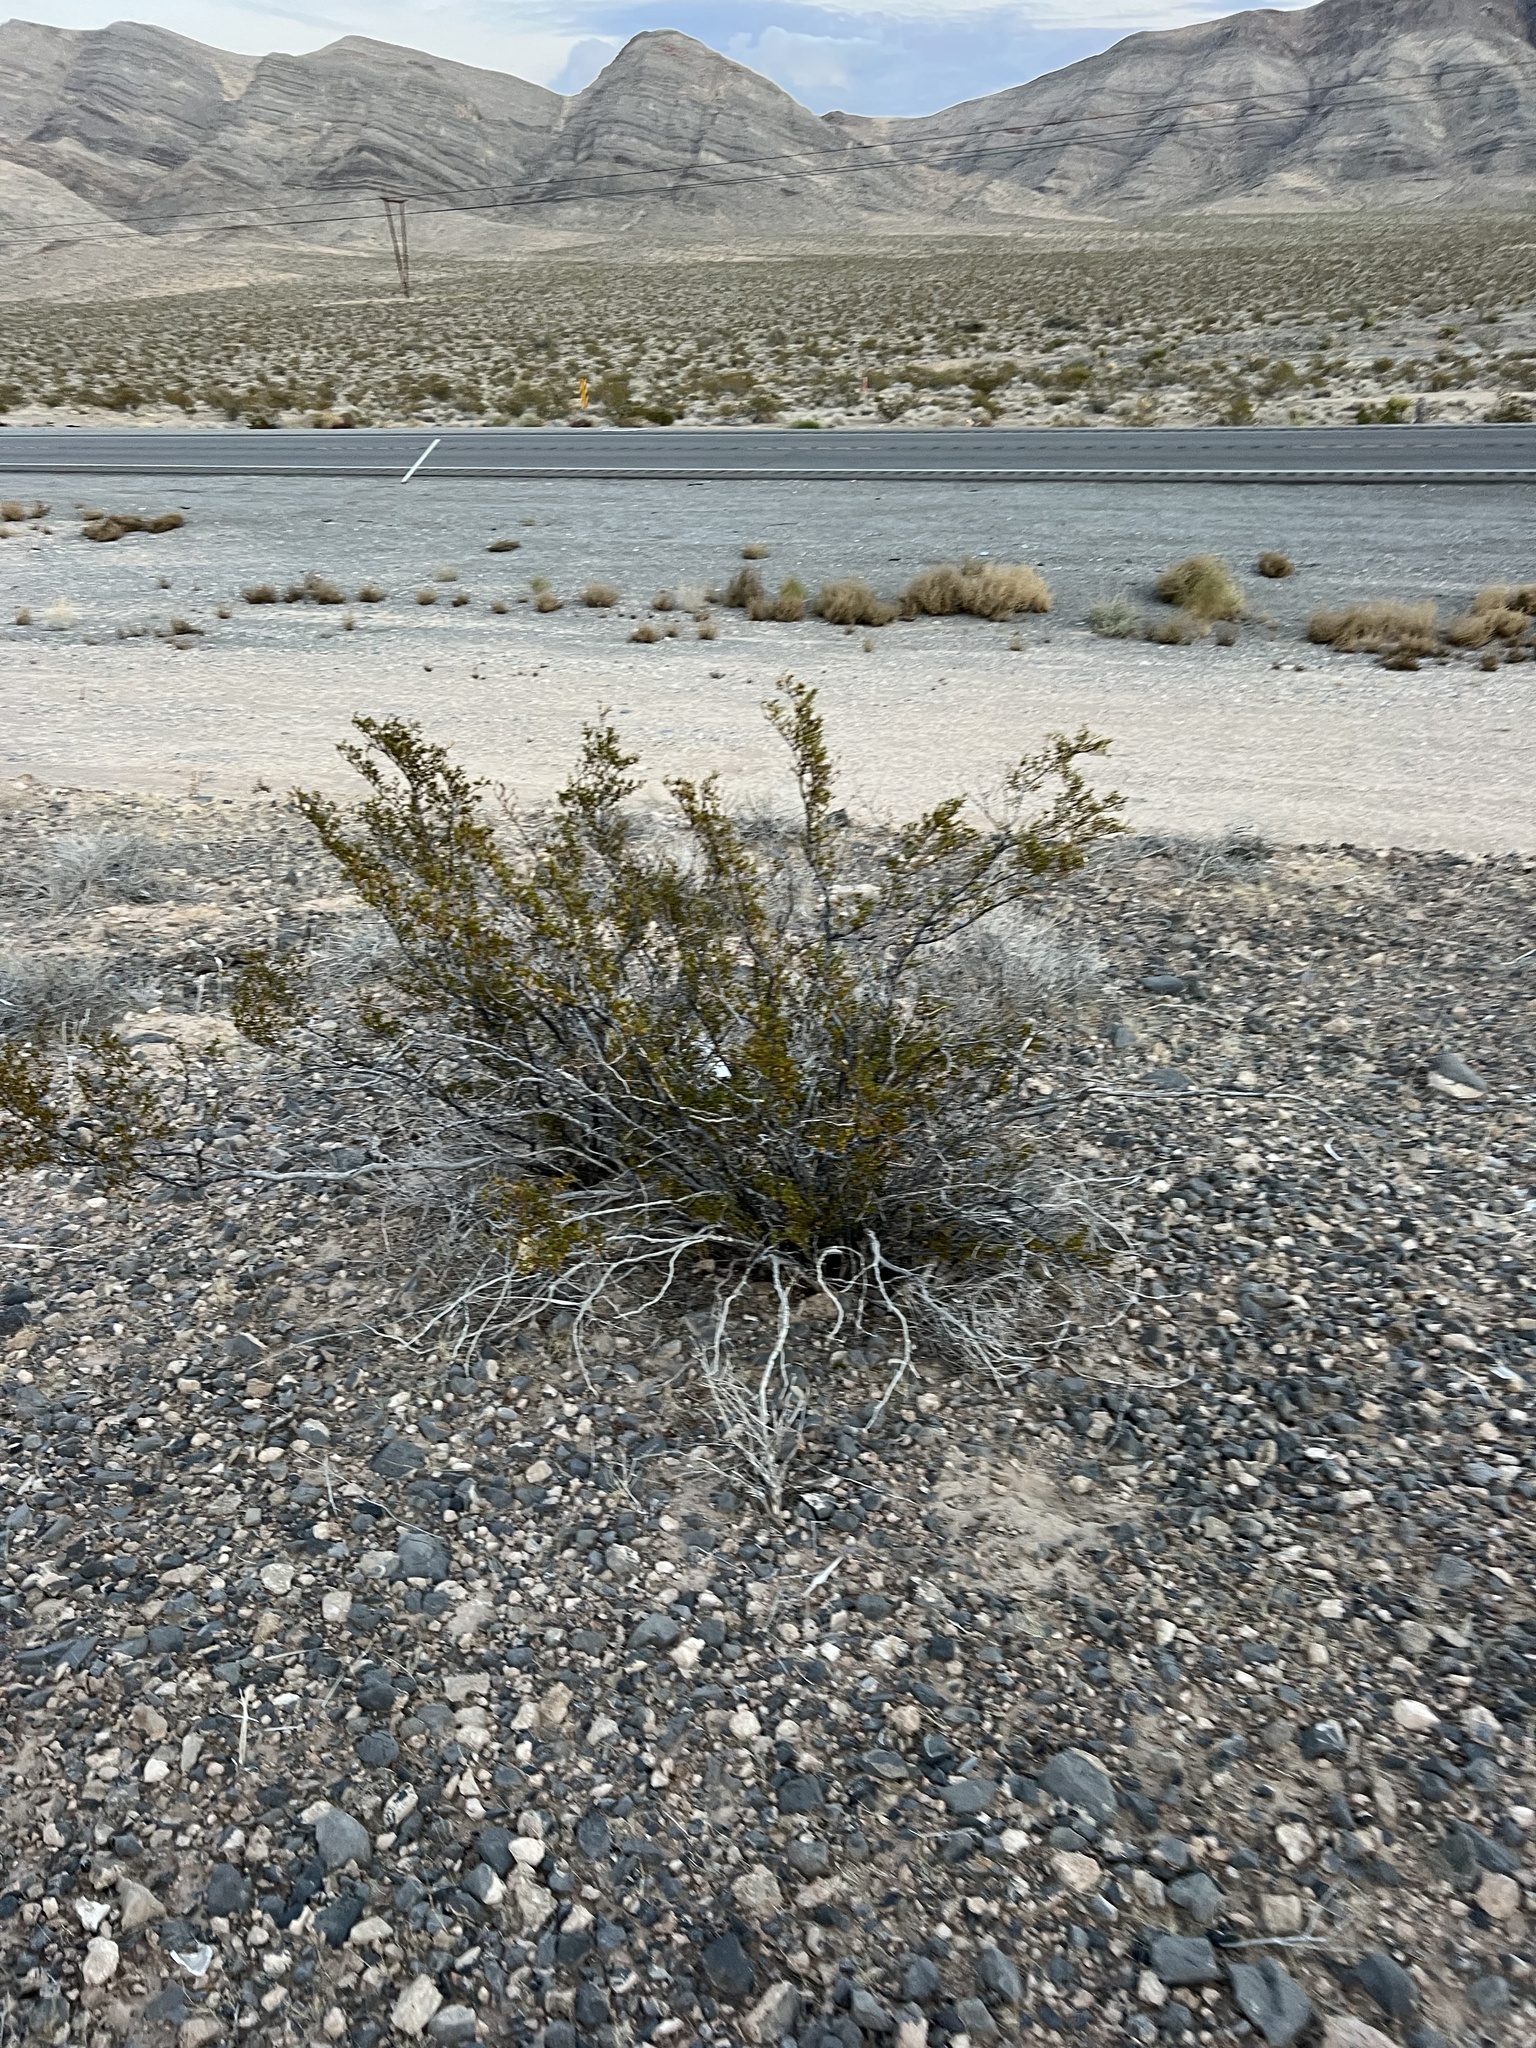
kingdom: Plantae
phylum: Tracheophyta
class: Magnoliopsida
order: Zygophyllales
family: Zygophyllaceae
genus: Larrea
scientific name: Larrea tridentata
